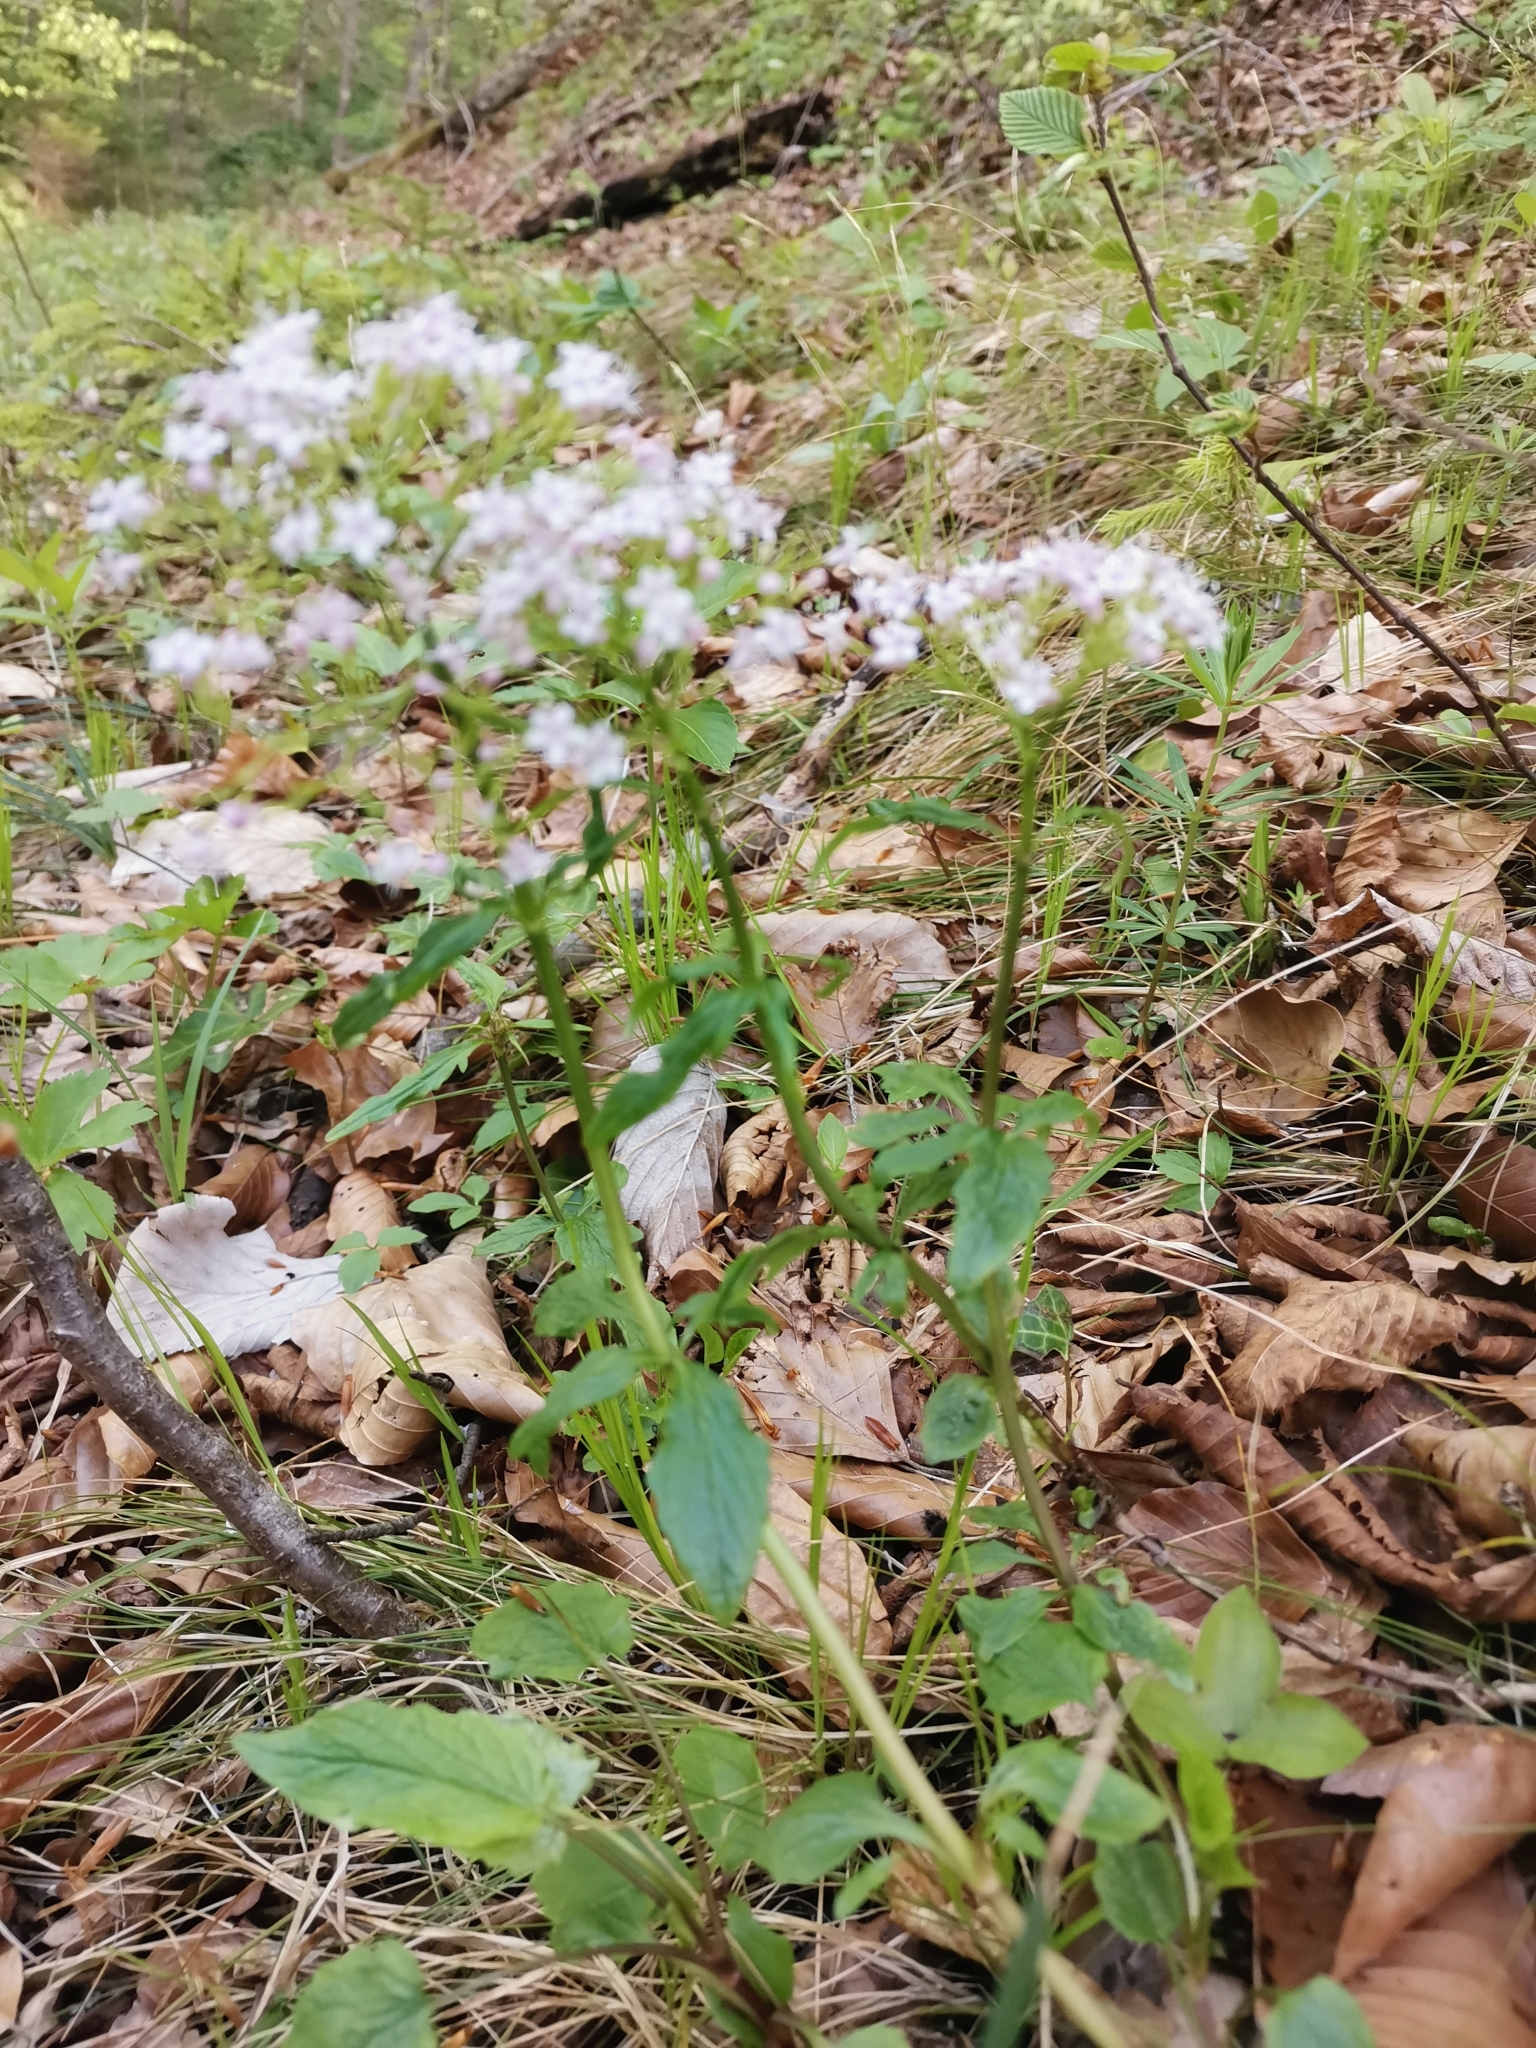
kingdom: Plantae
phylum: Tracheophyta
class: Magnoliopsida
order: Dipsacales
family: Caprifoliaceae
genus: Valeriana
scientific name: Valeriana tripteris
